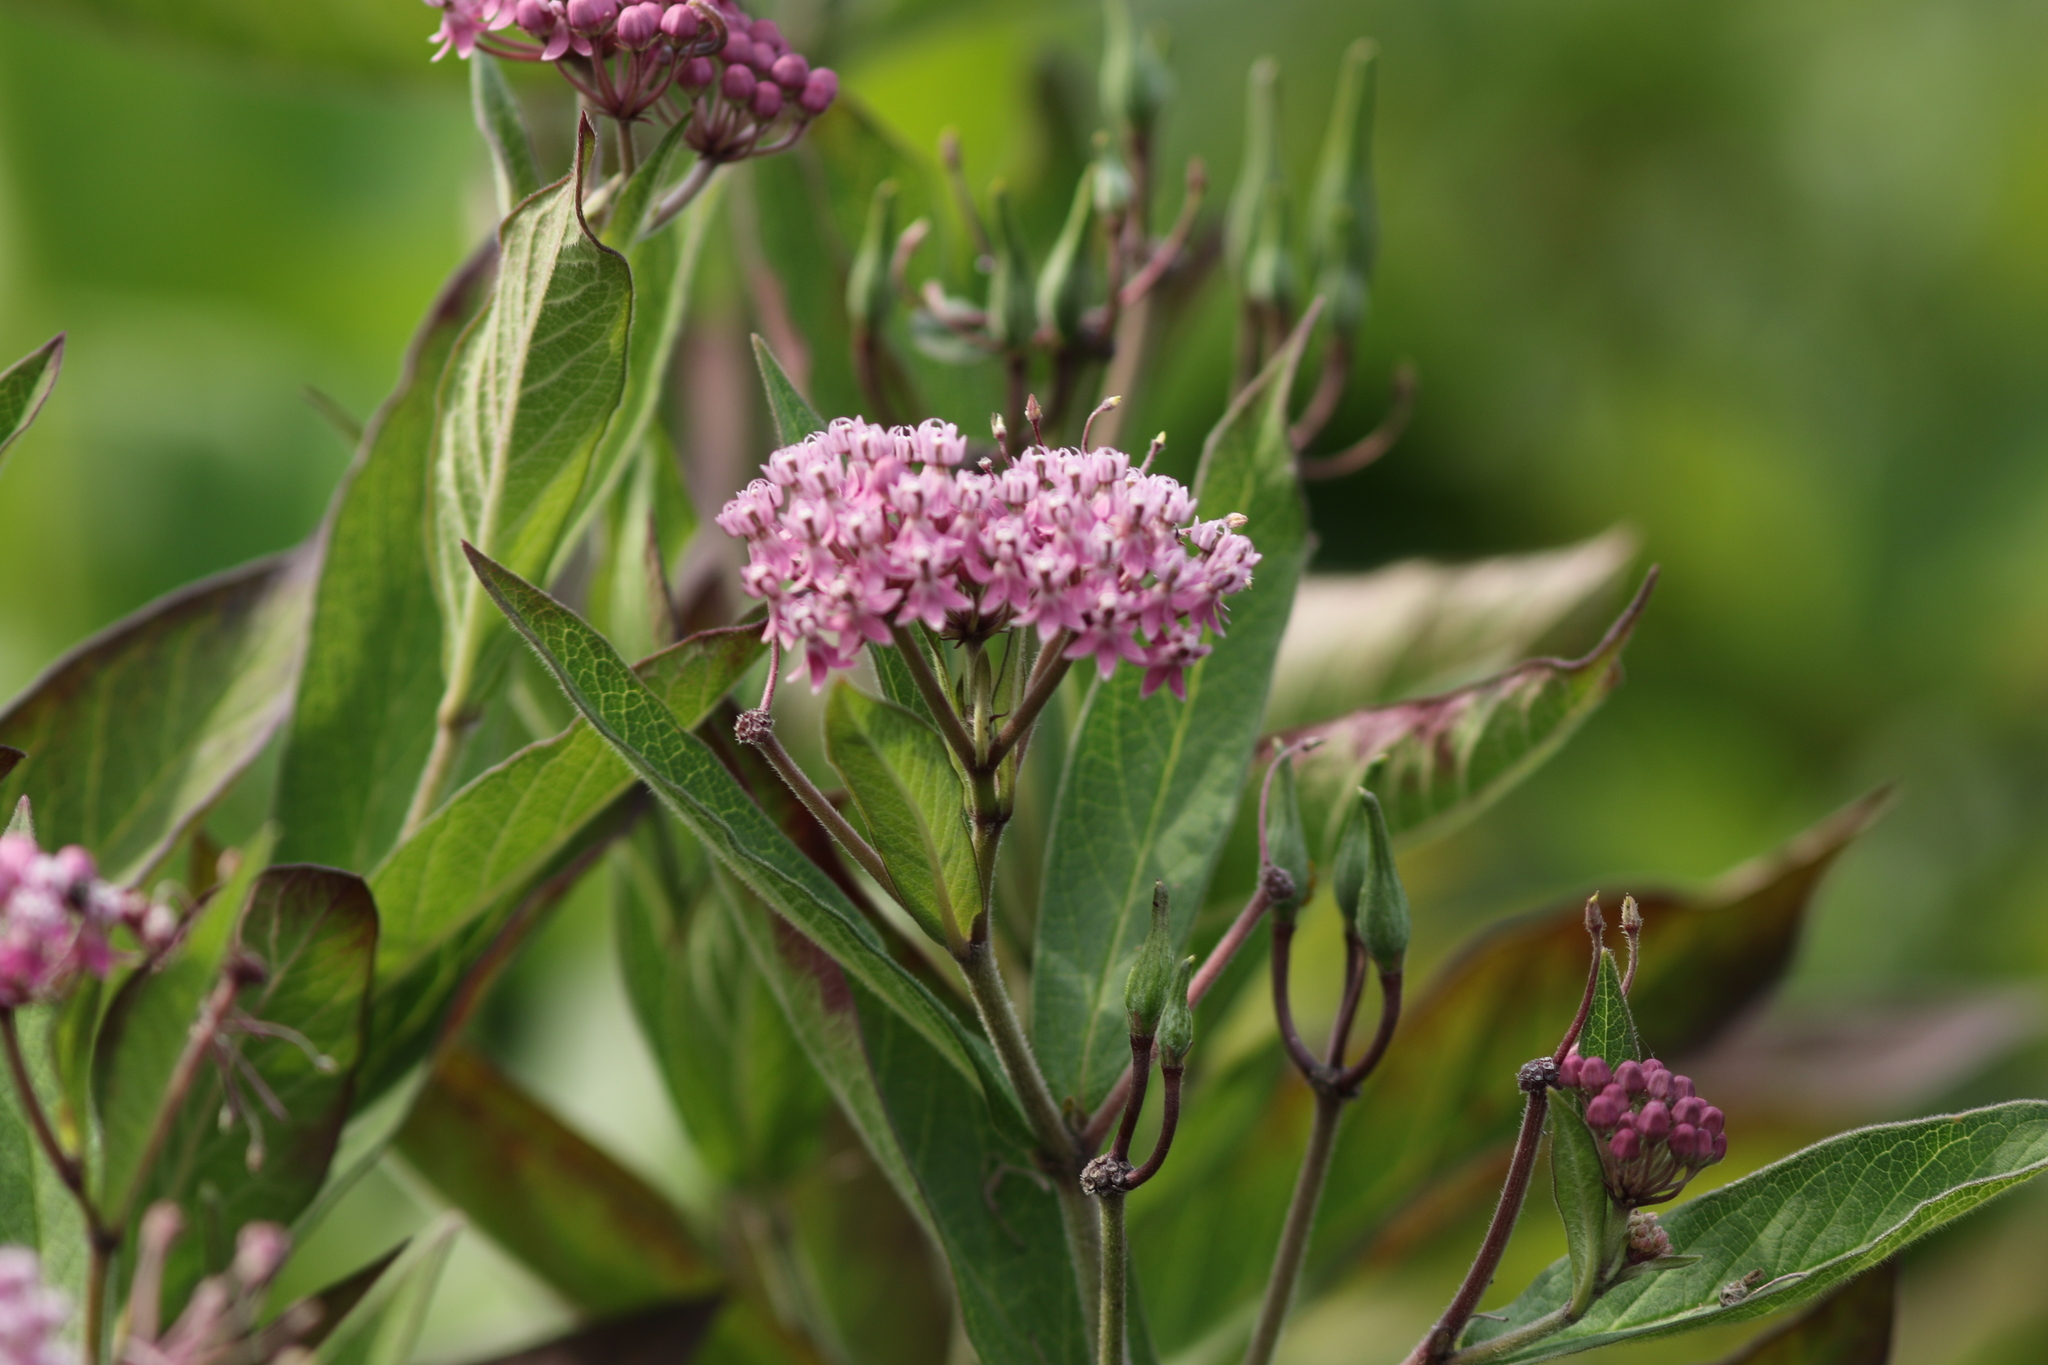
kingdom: Plantae
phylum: Tracheophyta
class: Magnoliopsida
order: Gentianales
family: Apocynaceae
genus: Asclepias
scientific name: Asclepias incarnata
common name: Swamp milkweed
